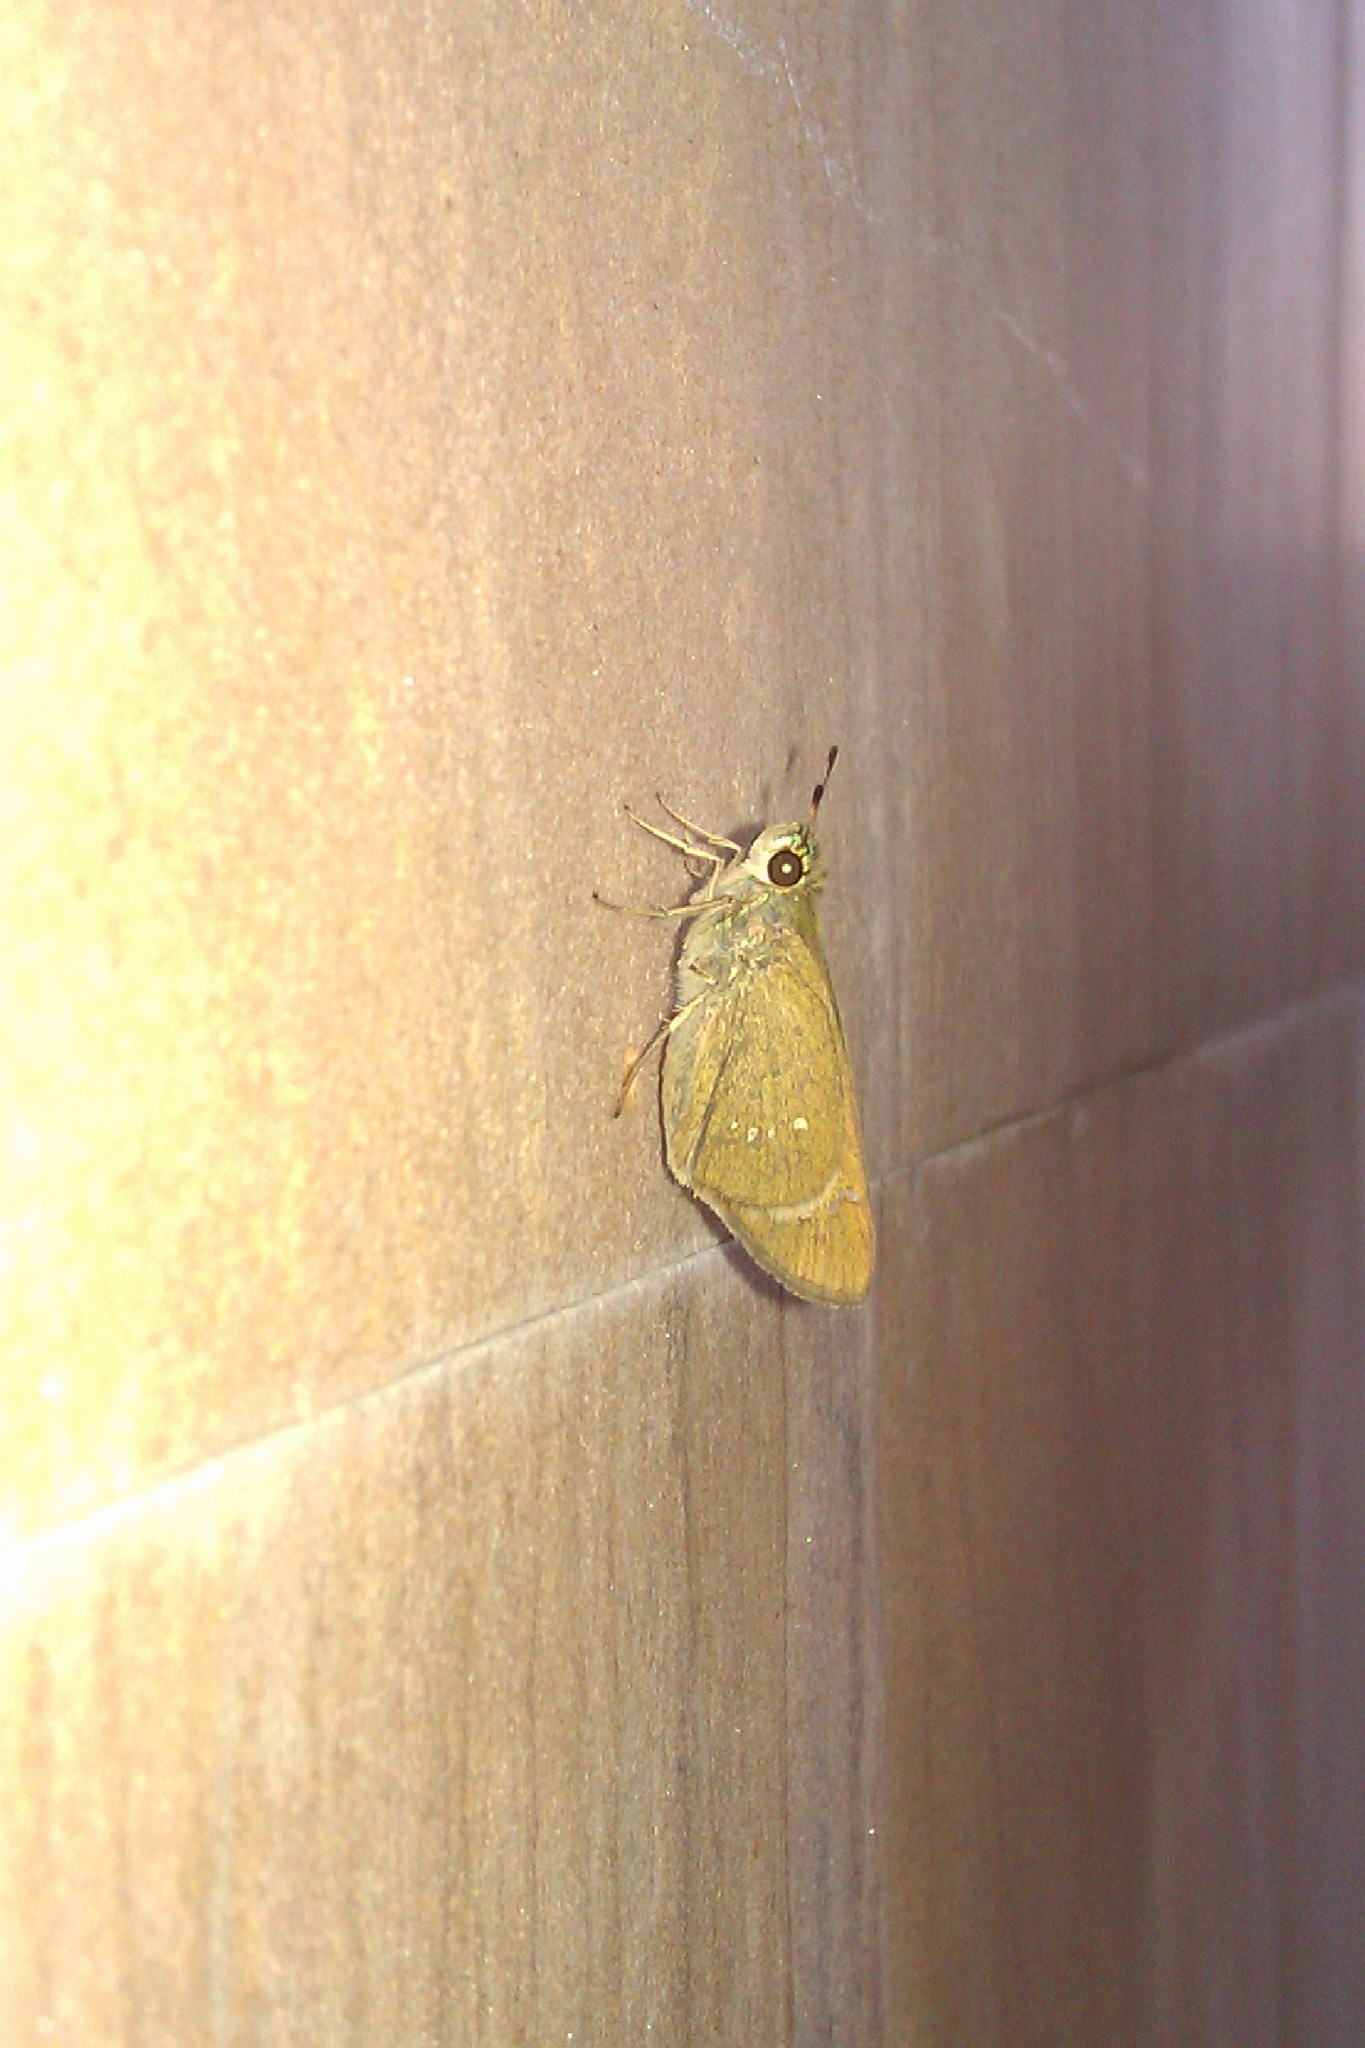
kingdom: Animalia
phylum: Arthropoda
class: Insecta
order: Lepidoptera
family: Hesperiidae
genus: Pelopidas
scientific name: Pelopidas
